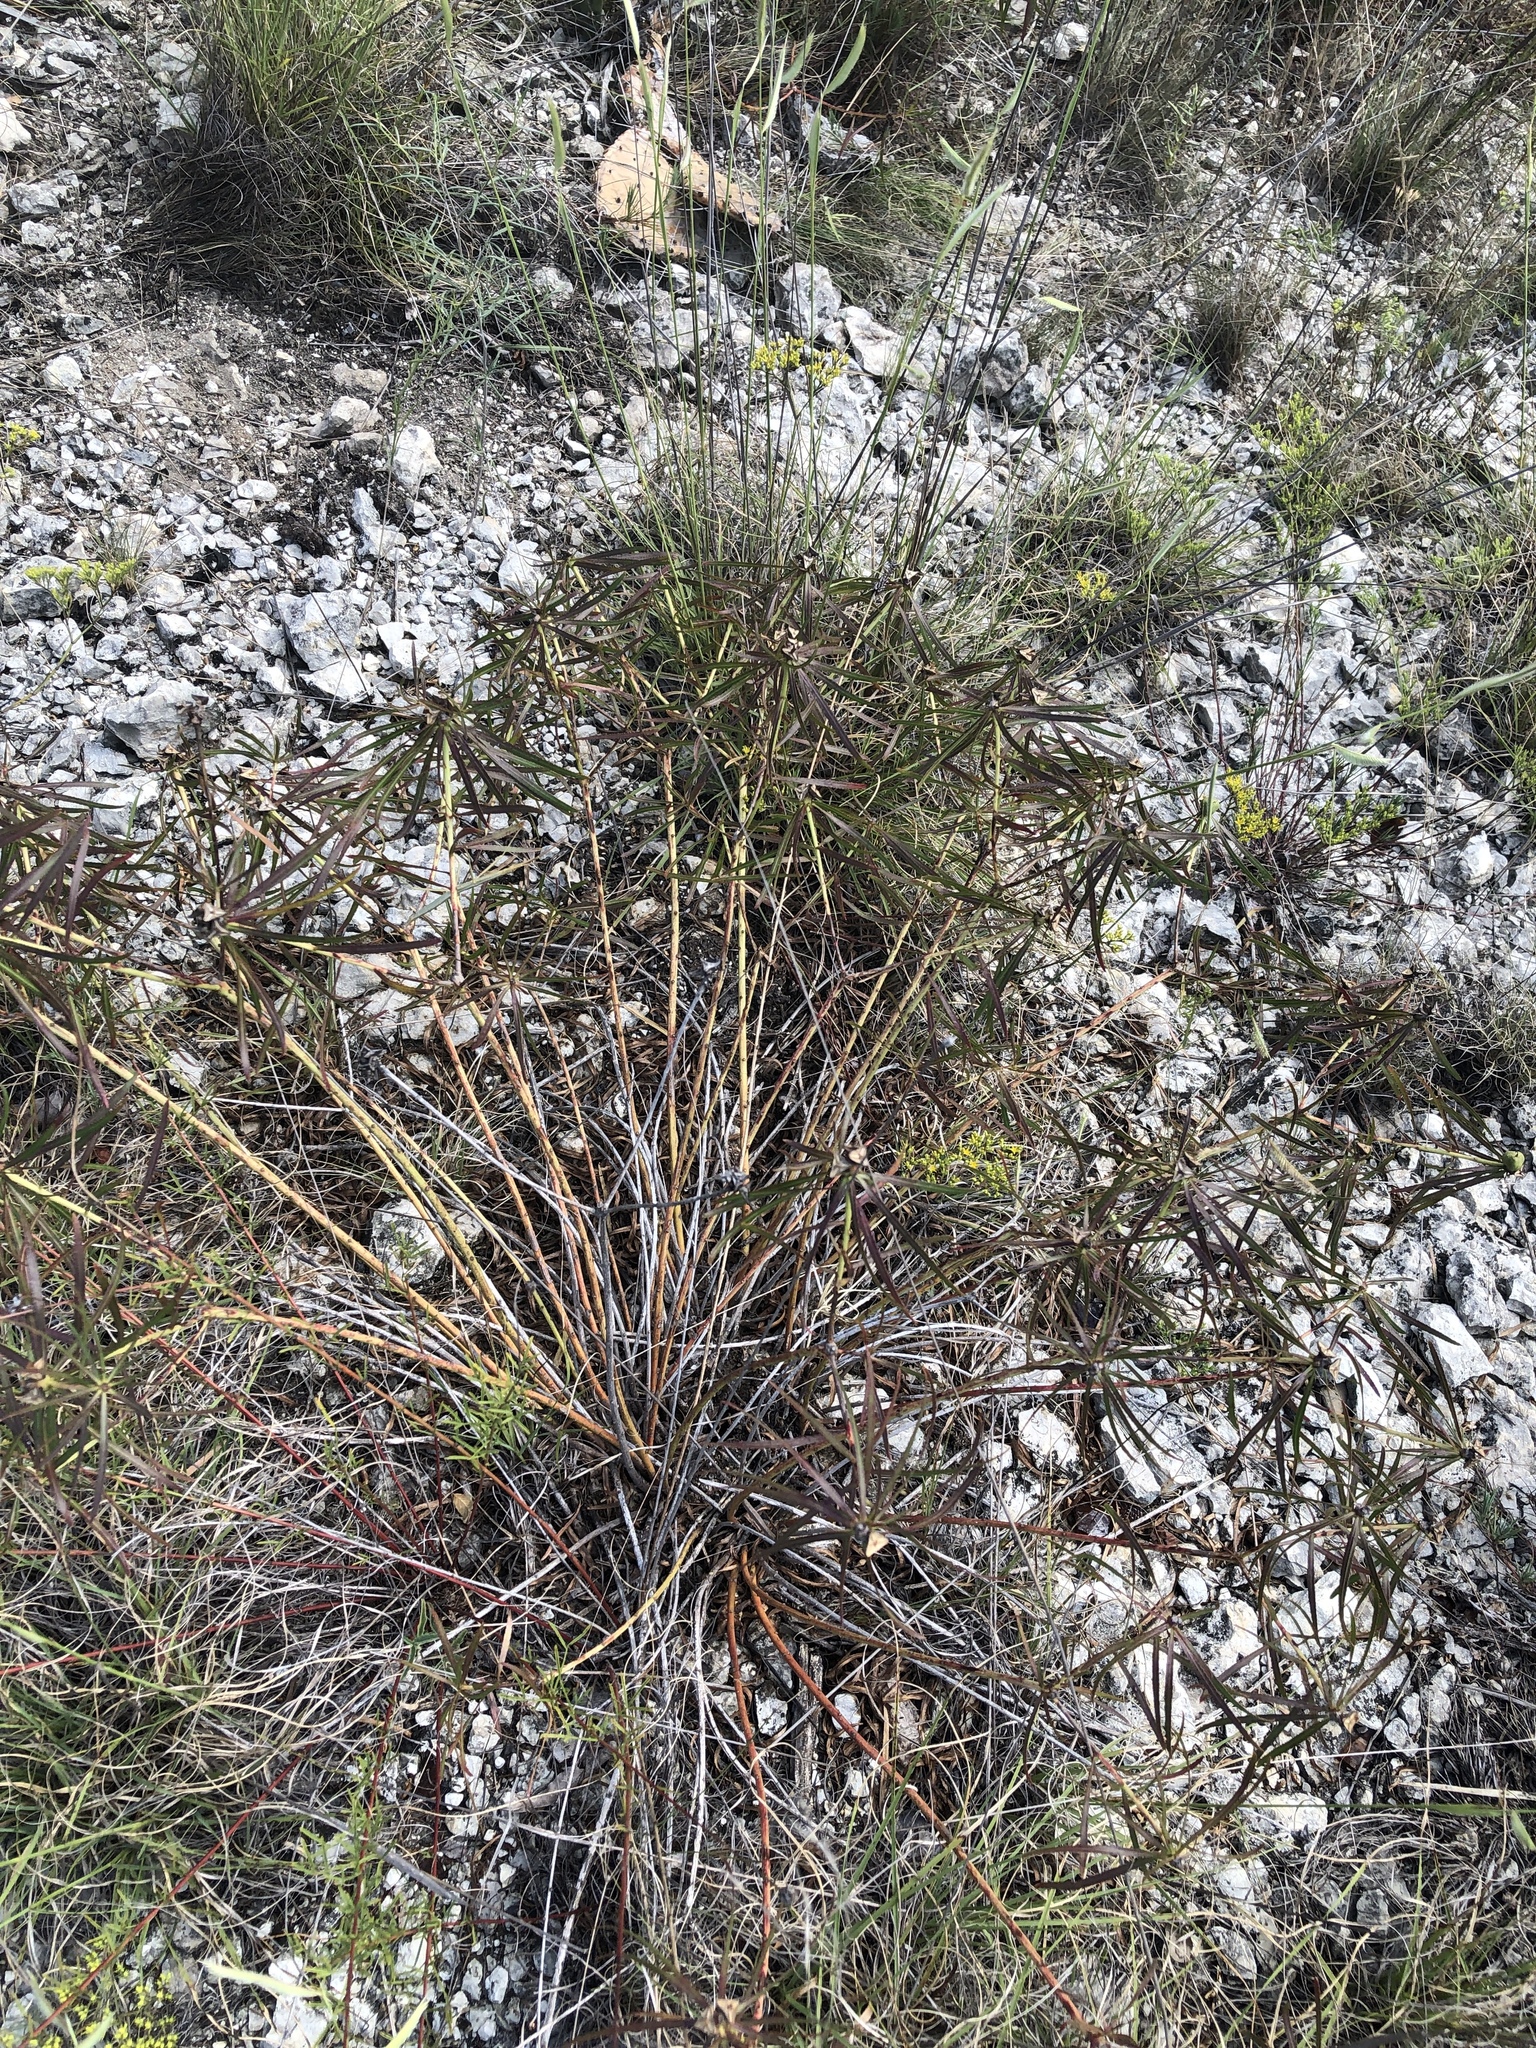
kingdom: Plantae
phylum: Tracheophyta
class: Magnoliopsida
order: Malpighiales
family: Euphorbiaceae
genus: Stillingia
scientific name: Stillingia texana
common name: Texas stillingia
